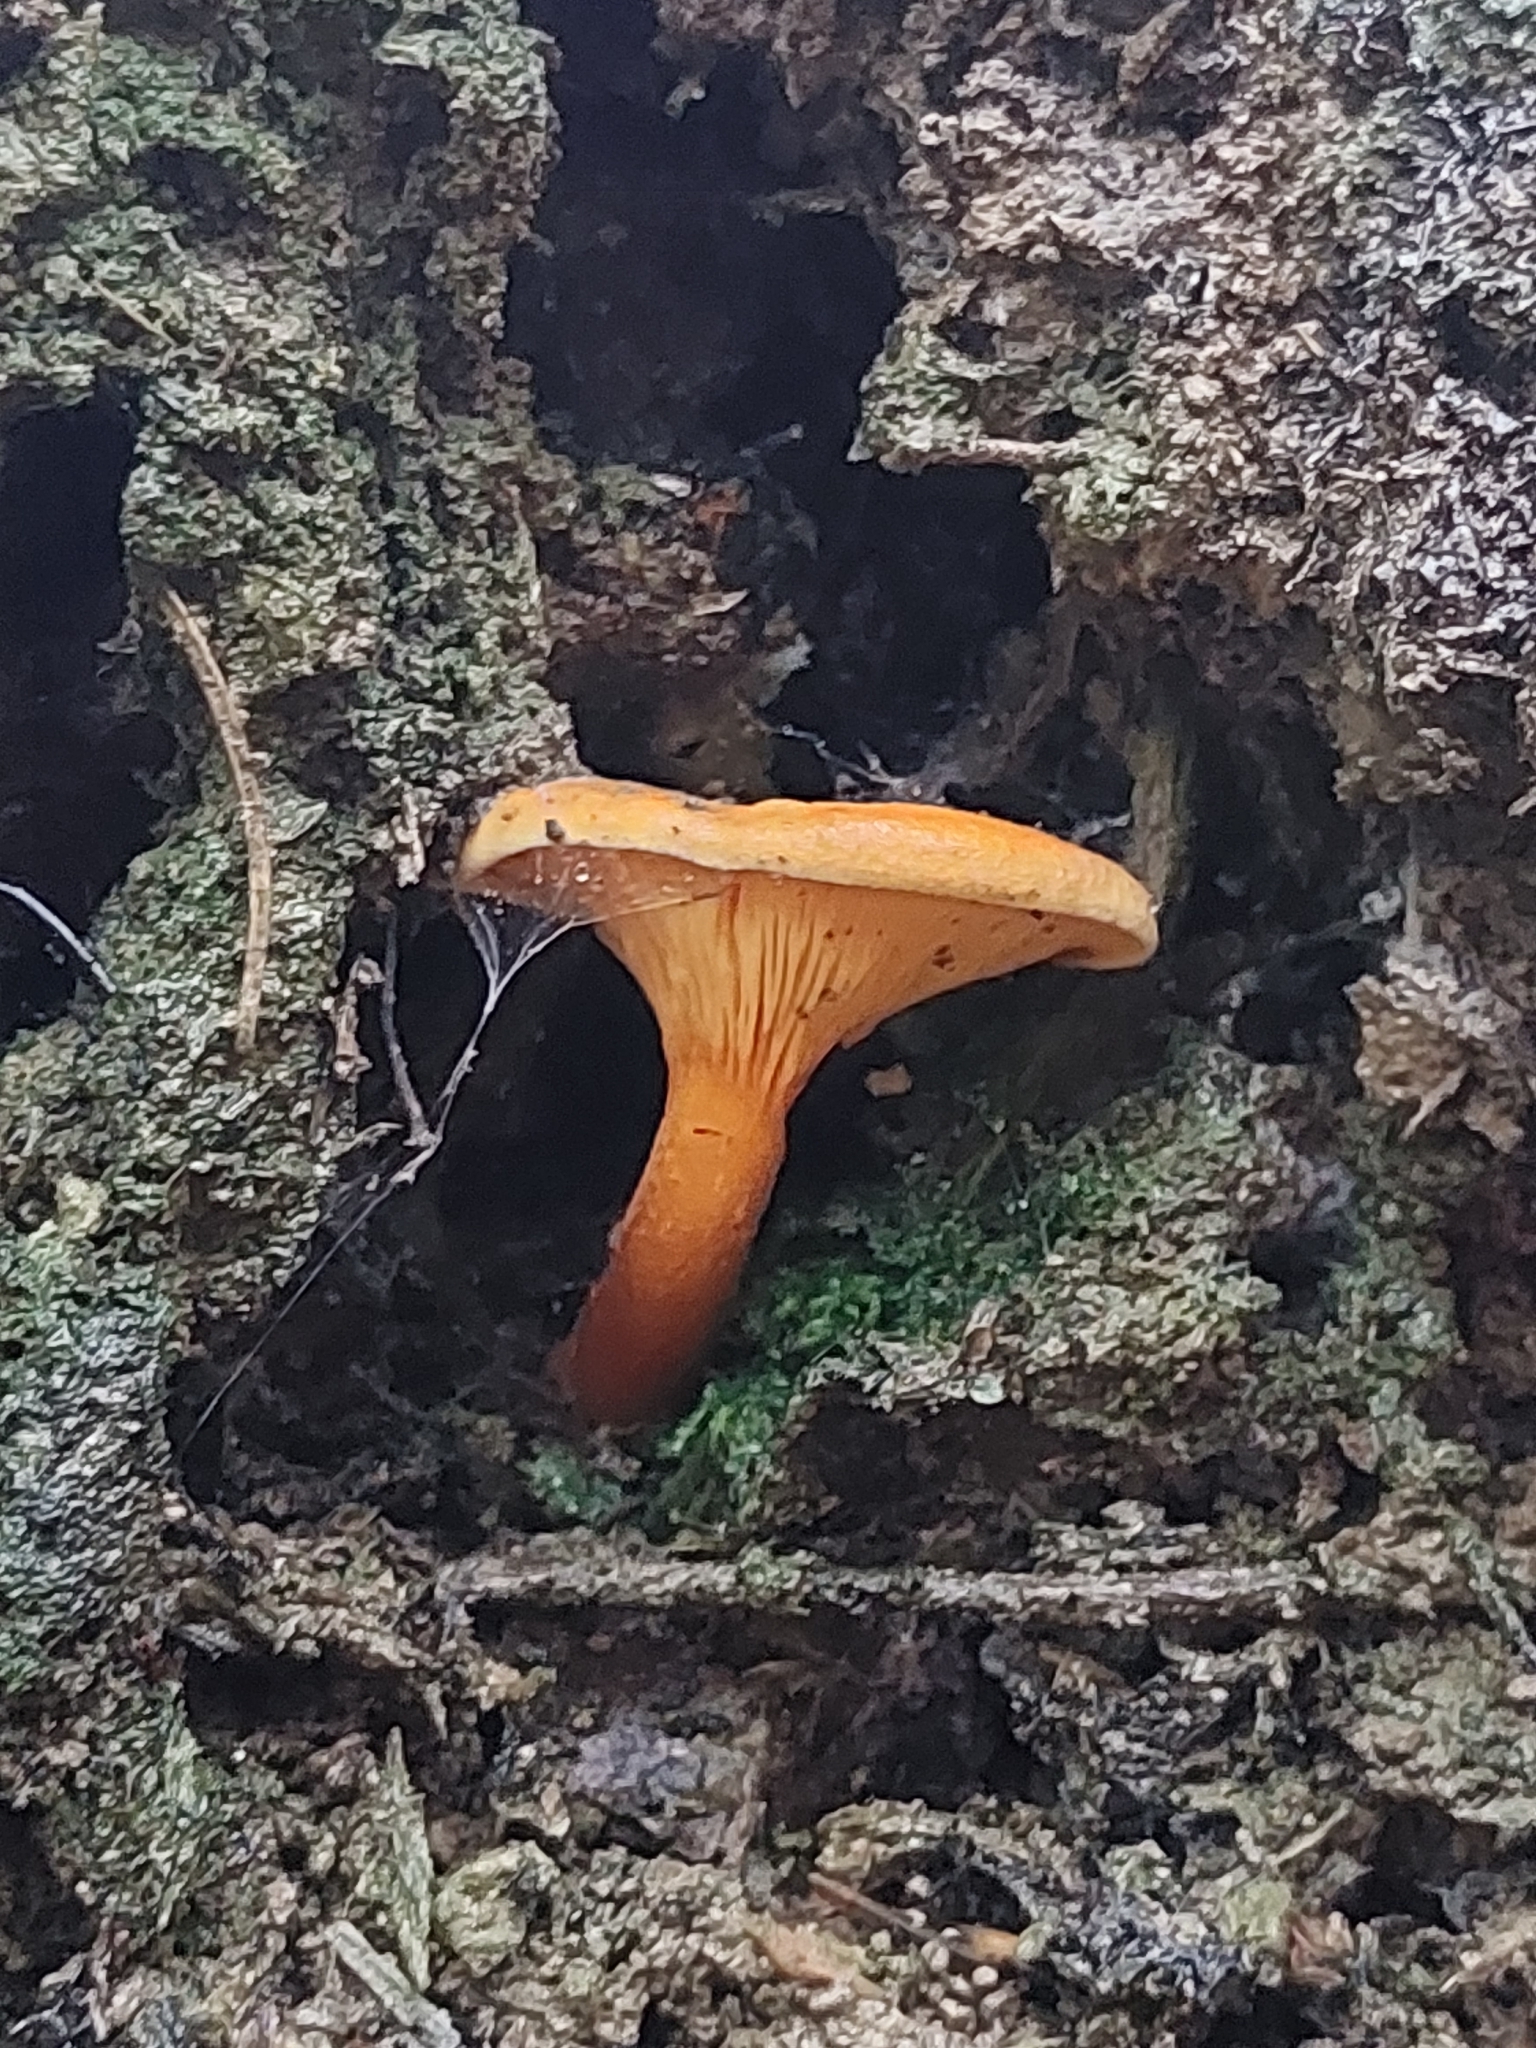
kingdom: Fungi
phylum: Basidiomycota
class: Agaricomycetes
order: Boletales
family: Hygrophoropsidaceae
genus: Hygrophoropsis
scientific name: Hygrophoropsis aurantiaca
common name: False chanterelle
